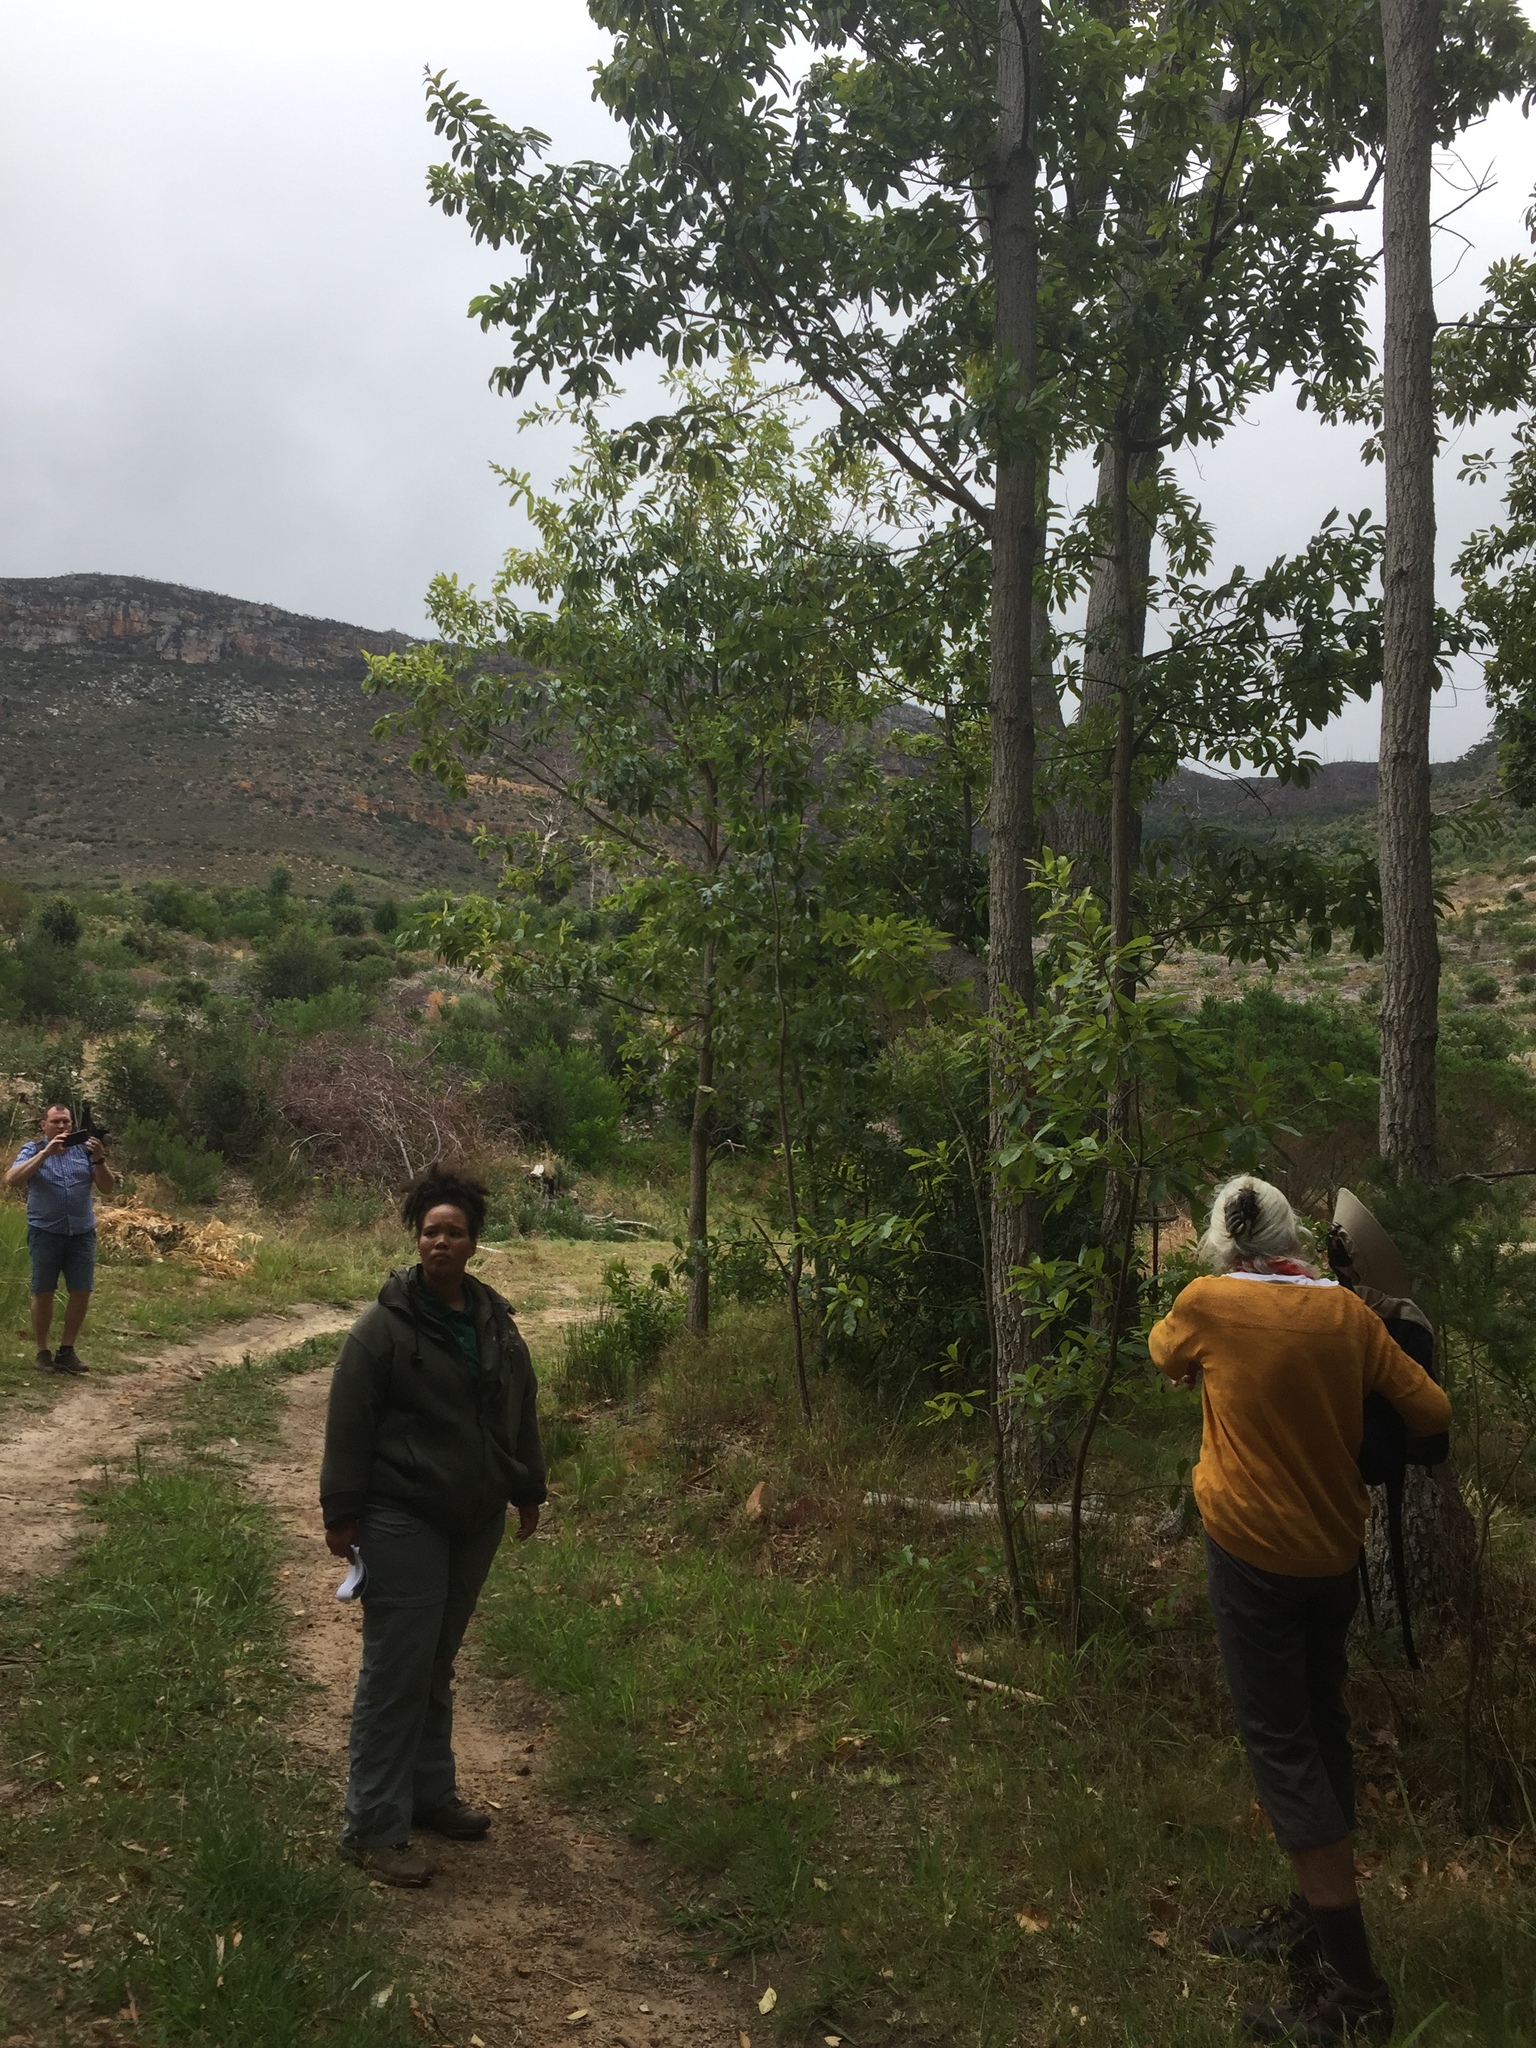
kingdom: Plantae
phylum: Tracheophyta
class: Magnoliopsida
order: Fagales
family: Fagaceae
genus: Quercus
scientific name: Quercus acutissima
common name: Sawtooth oak
